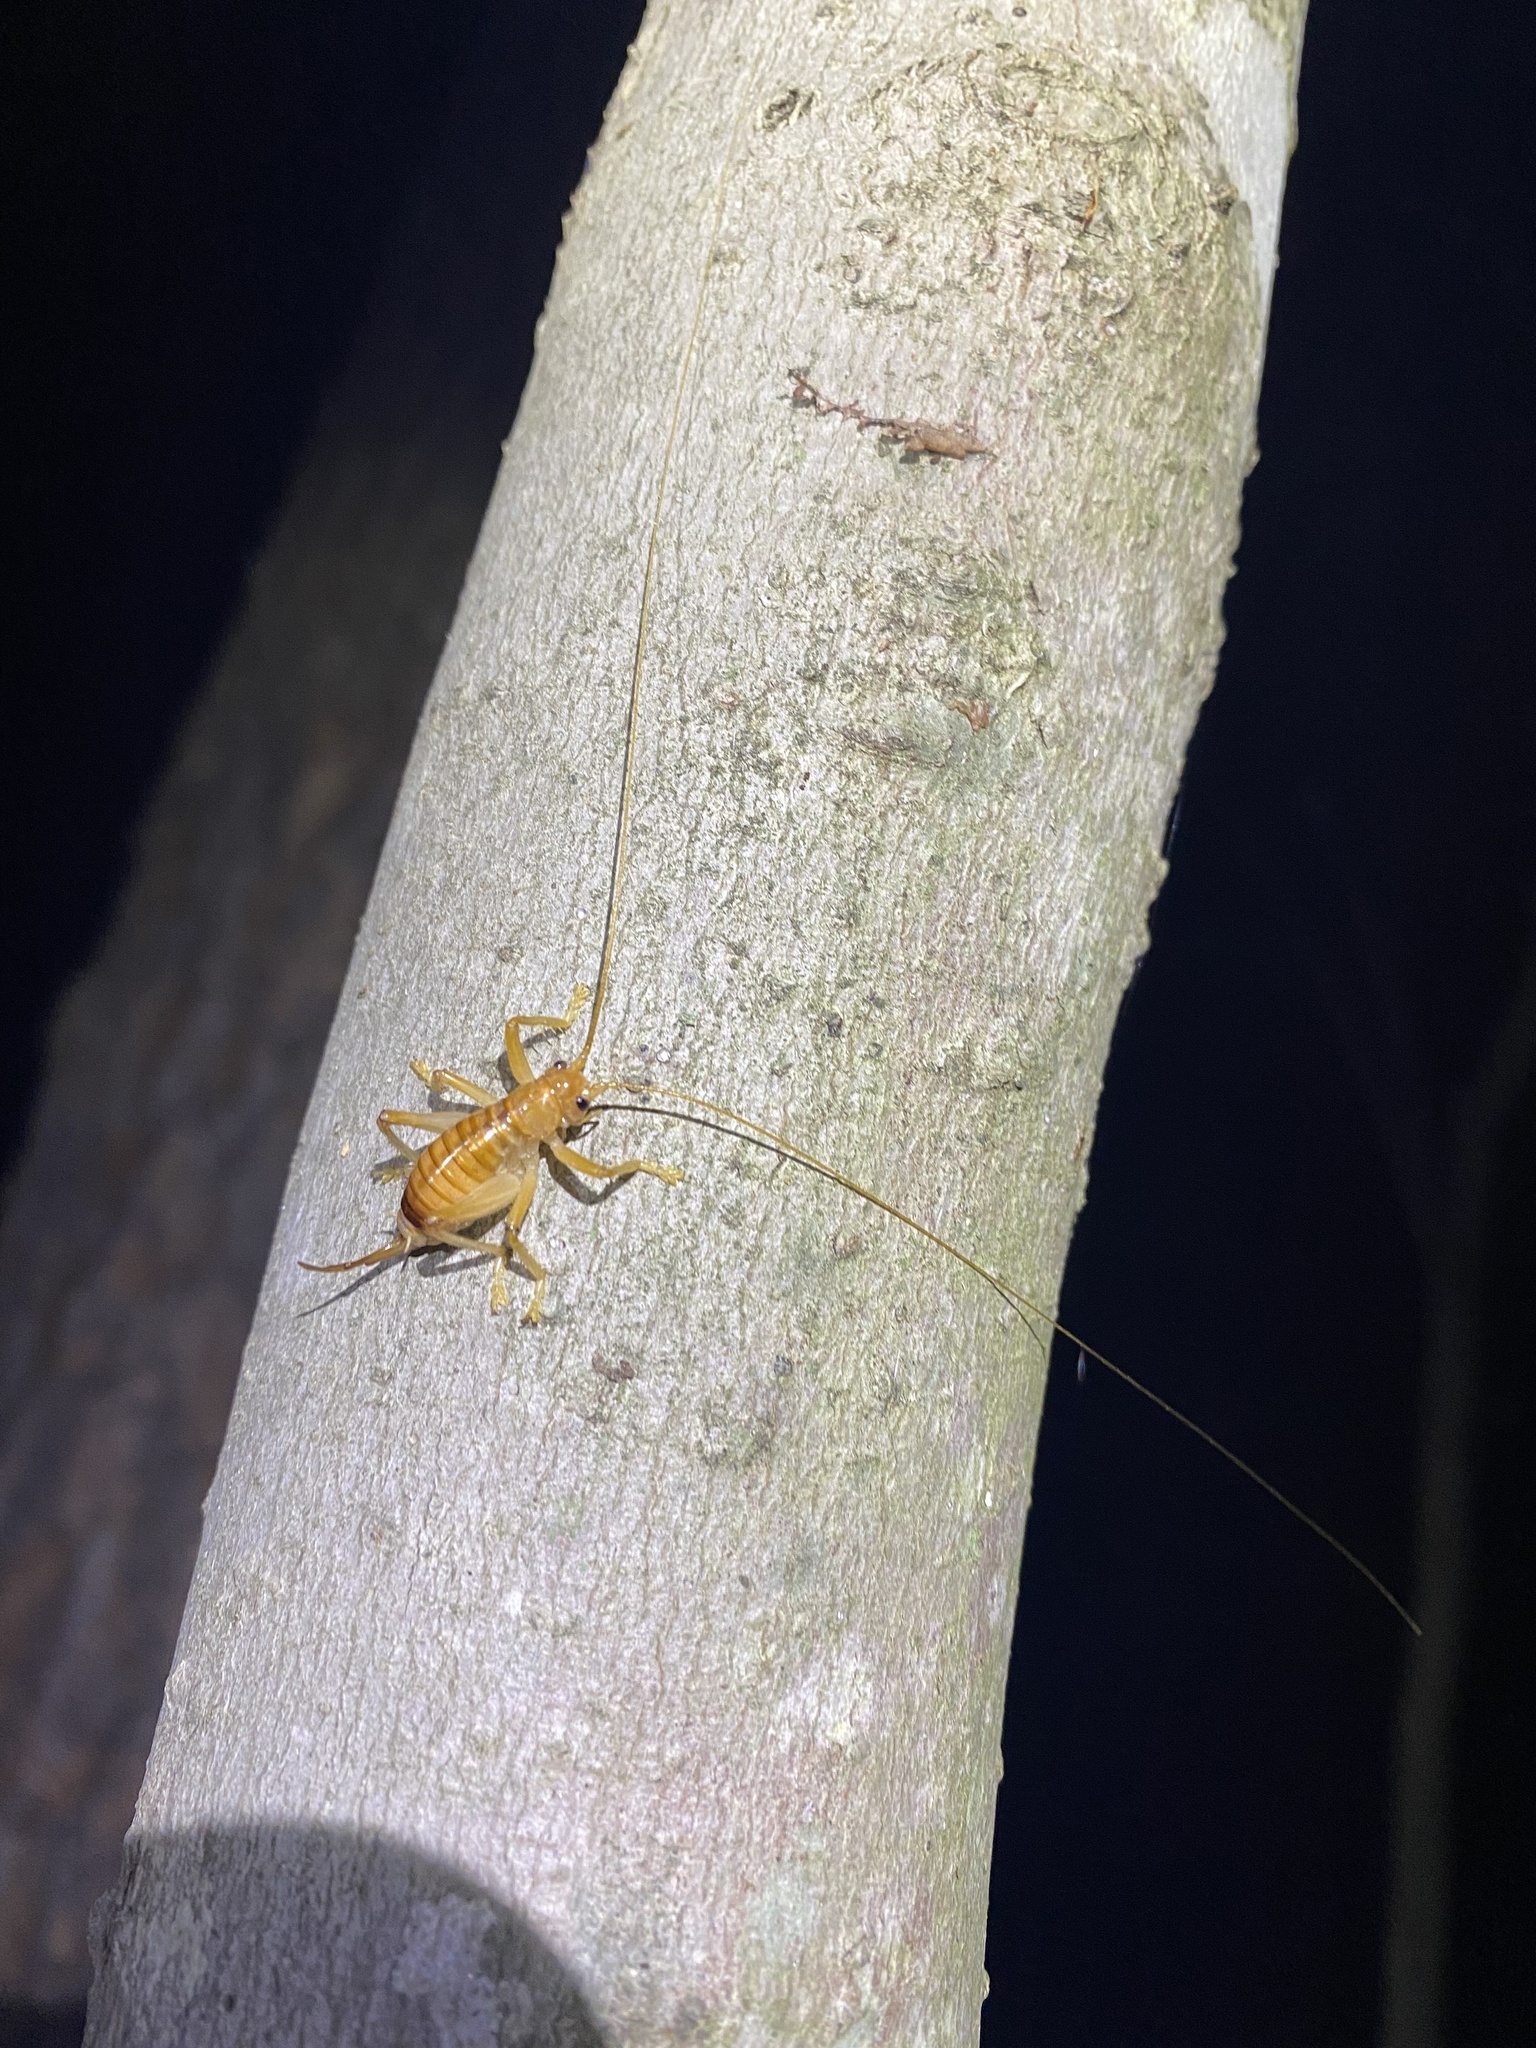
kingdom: Animalia
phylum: Arthropoda
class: Insecta
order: Orthoptera
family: Gryllacrididae
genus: Camptonotus
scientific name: Camptonotus carolinensis
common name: Carolina leaf-roller
